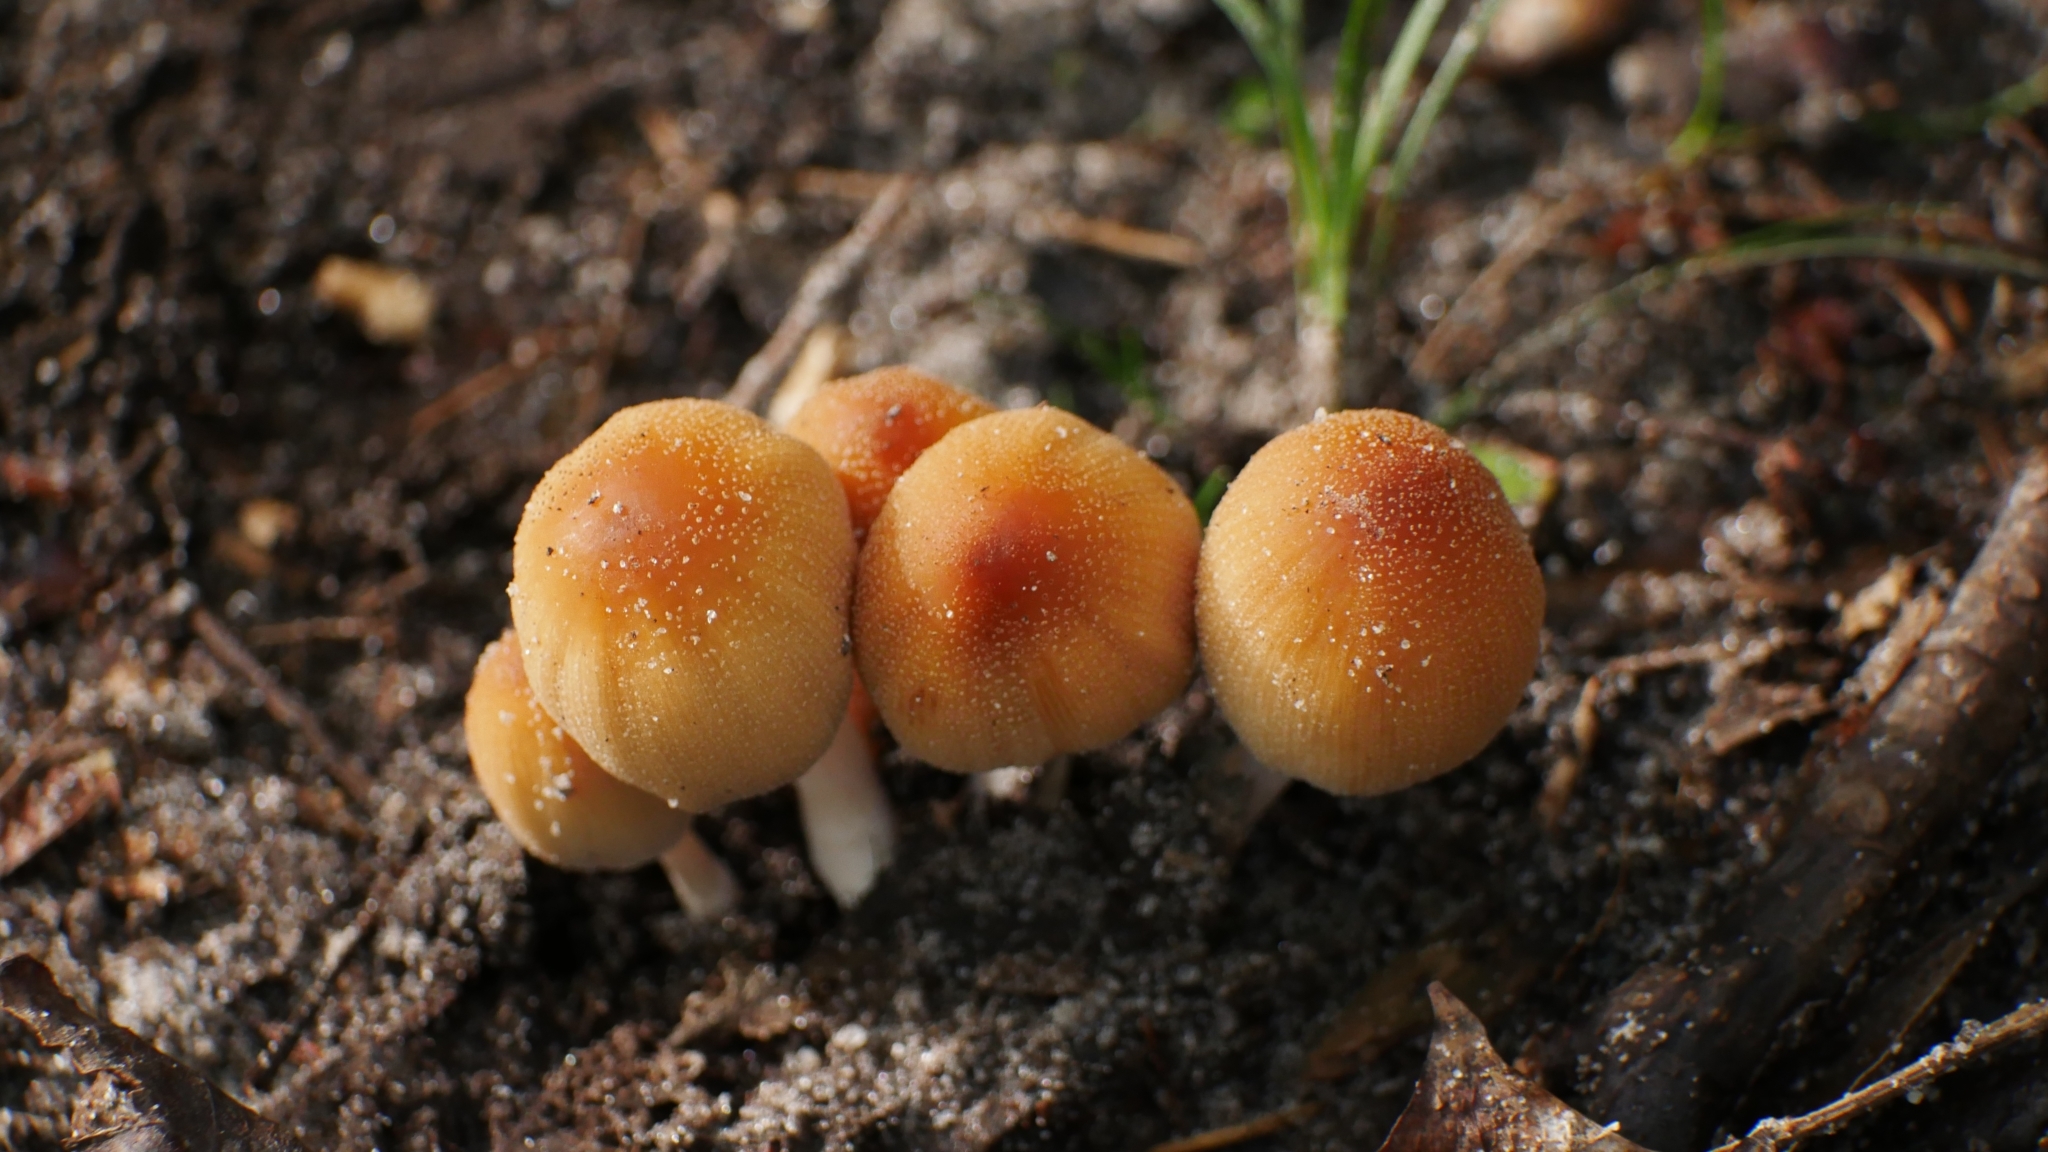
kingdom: Fungi
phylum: Basidiomycota
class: Agaricomycetes
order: Agaricales
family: Psathyrellaceae
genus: Coprinellus
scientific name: Coprinellus micaceus
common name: Glistening ink-cap
